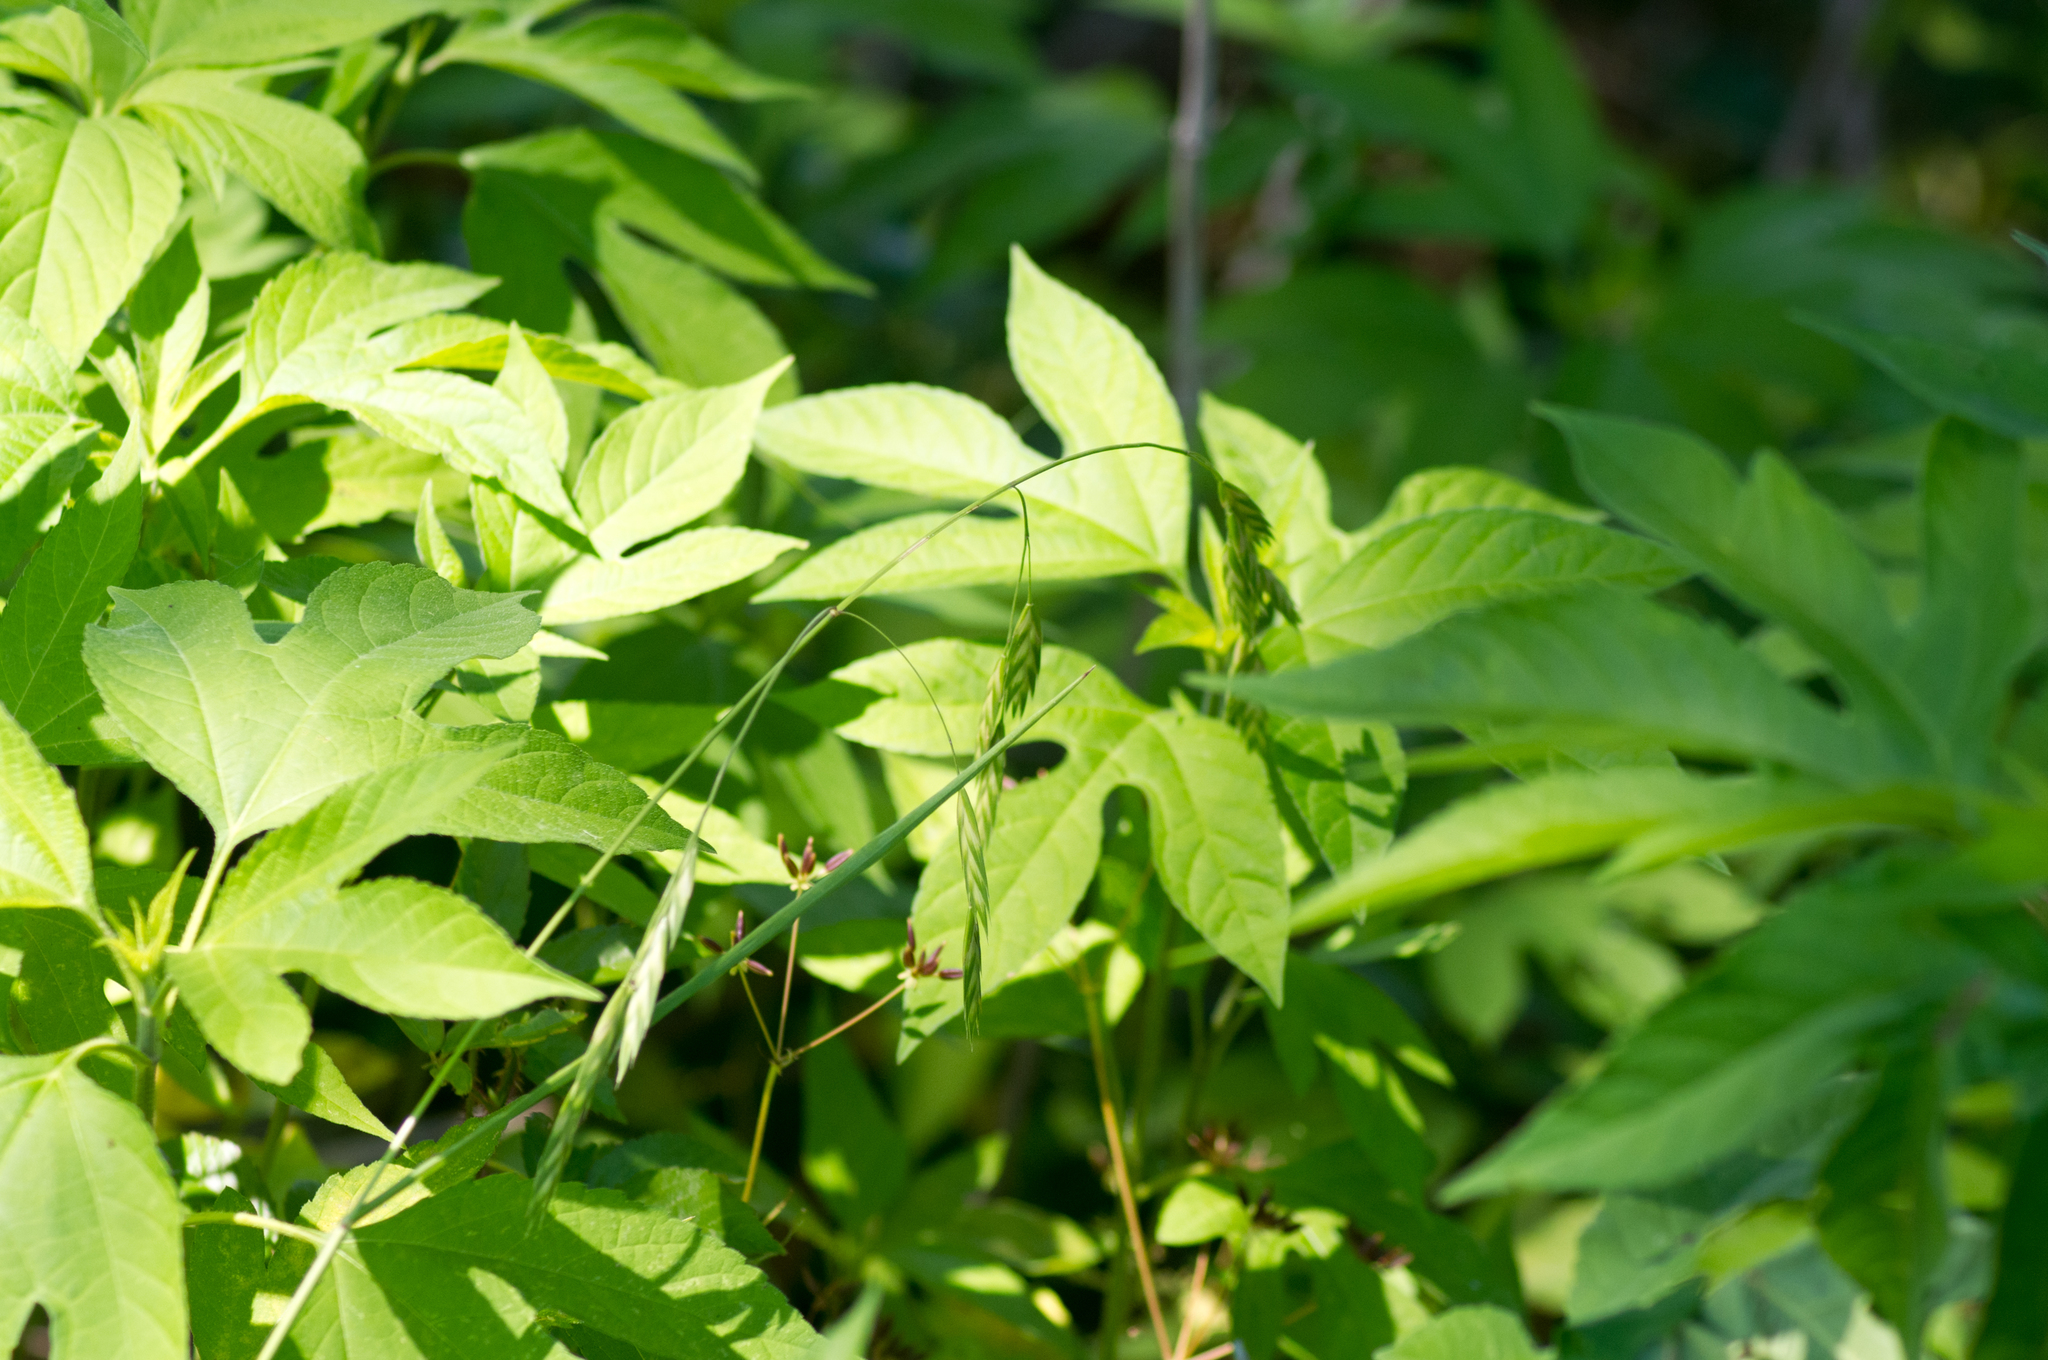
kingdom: Plantae
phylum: Tracheophyta
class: Magnoliopsida
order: Asterales
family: Asteraceae
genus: Ambrosia
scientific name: Ambrosia trifida
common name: Giant ragweed
